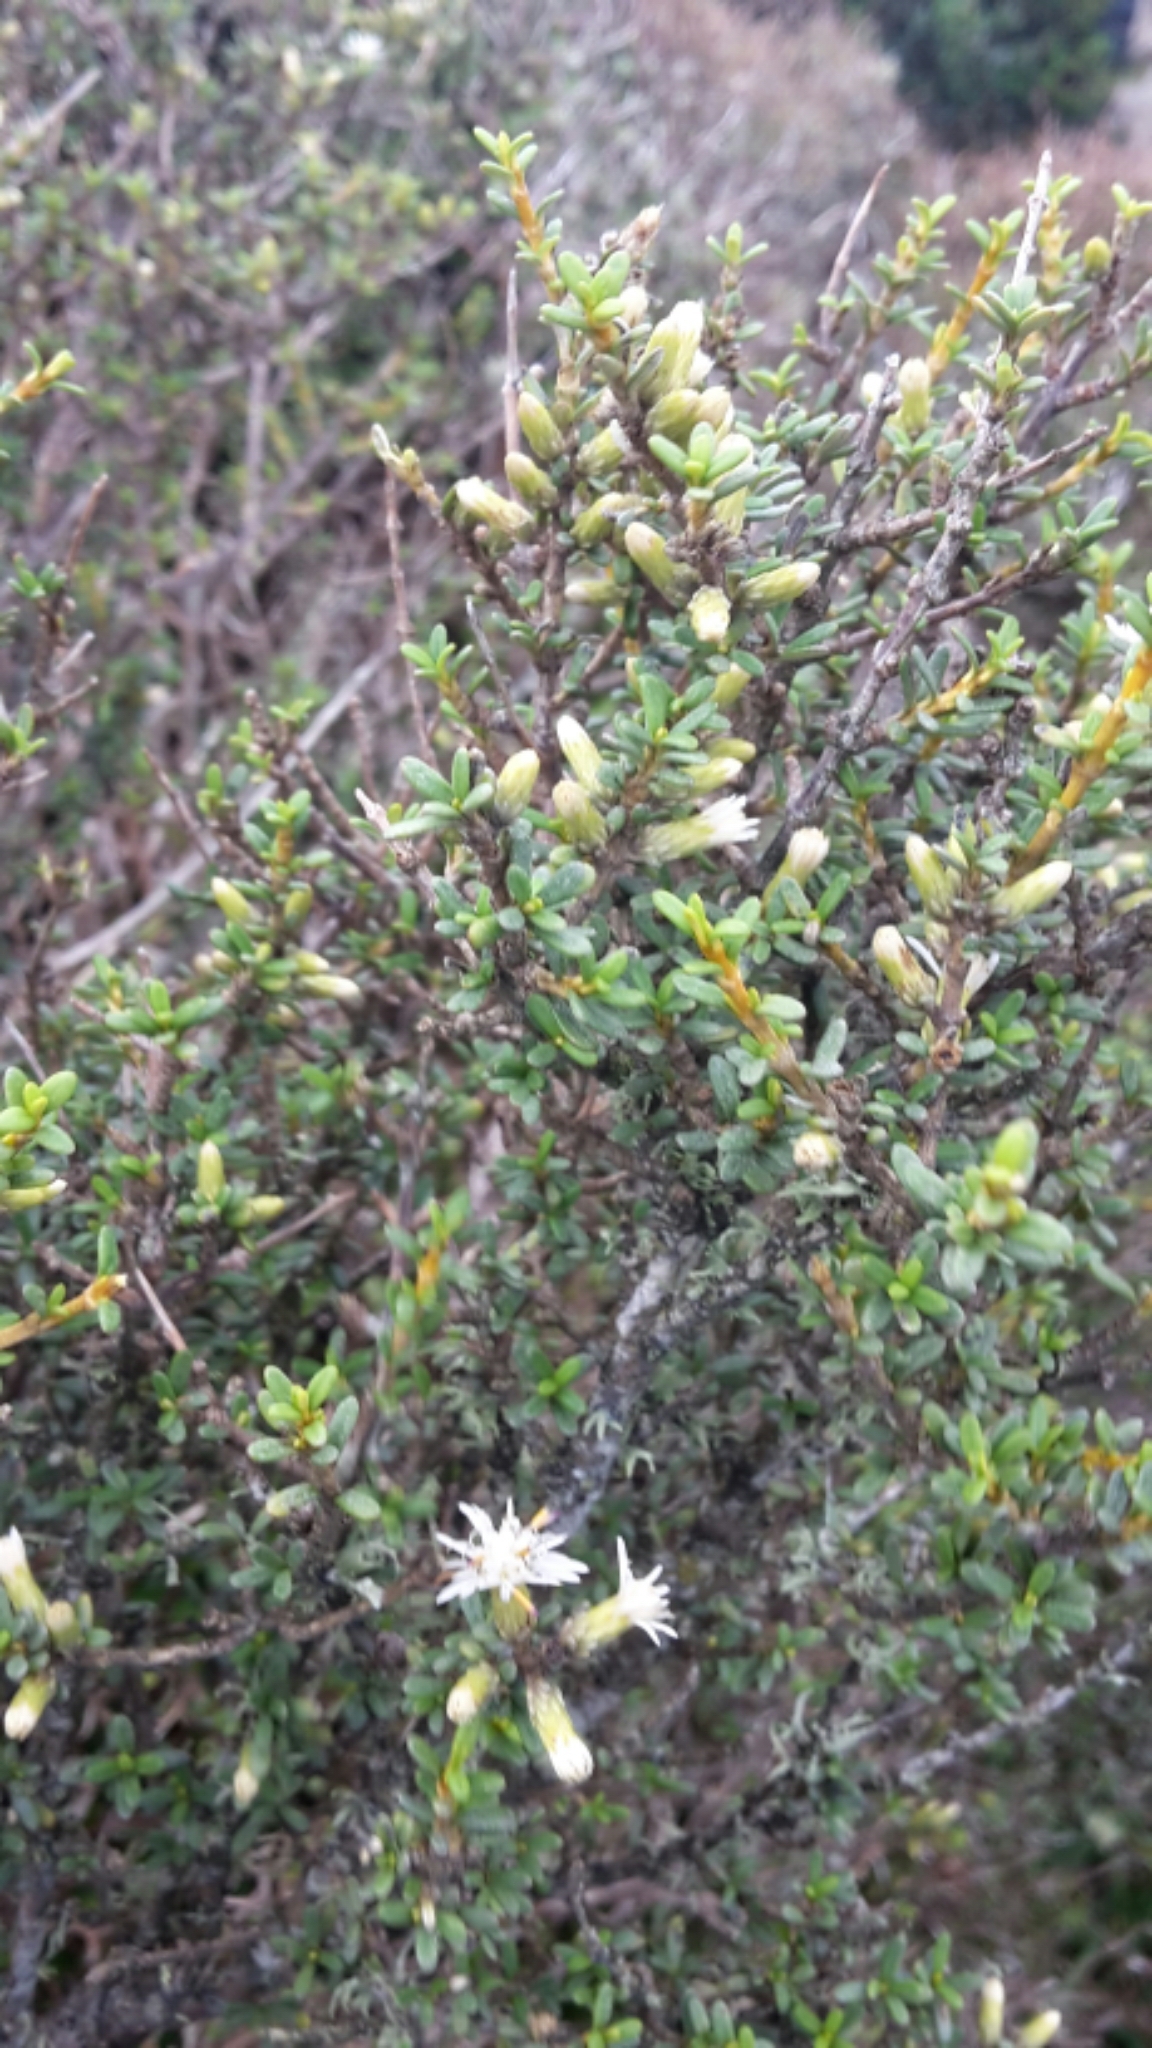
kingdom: Plantae
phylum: Tracheophyta
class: Magnoliopsida
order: Asterales
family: Asteraceae
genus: Olearia
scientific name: Olearia solandri
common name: Coastal daisybush
